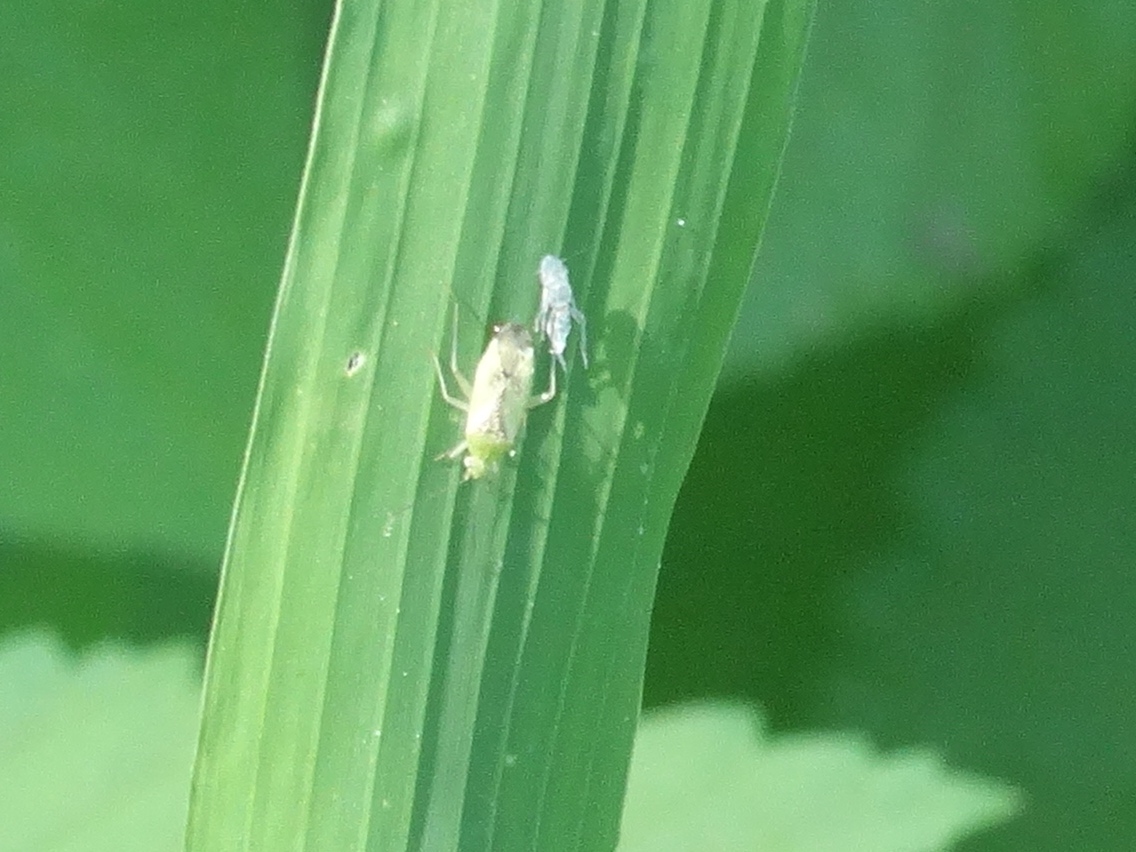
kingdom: Animalia
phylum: Arthropoda
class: Insecta
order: Hemiptera
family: Miridae
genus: Reuteroscopus
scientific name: Reuteroscopus
